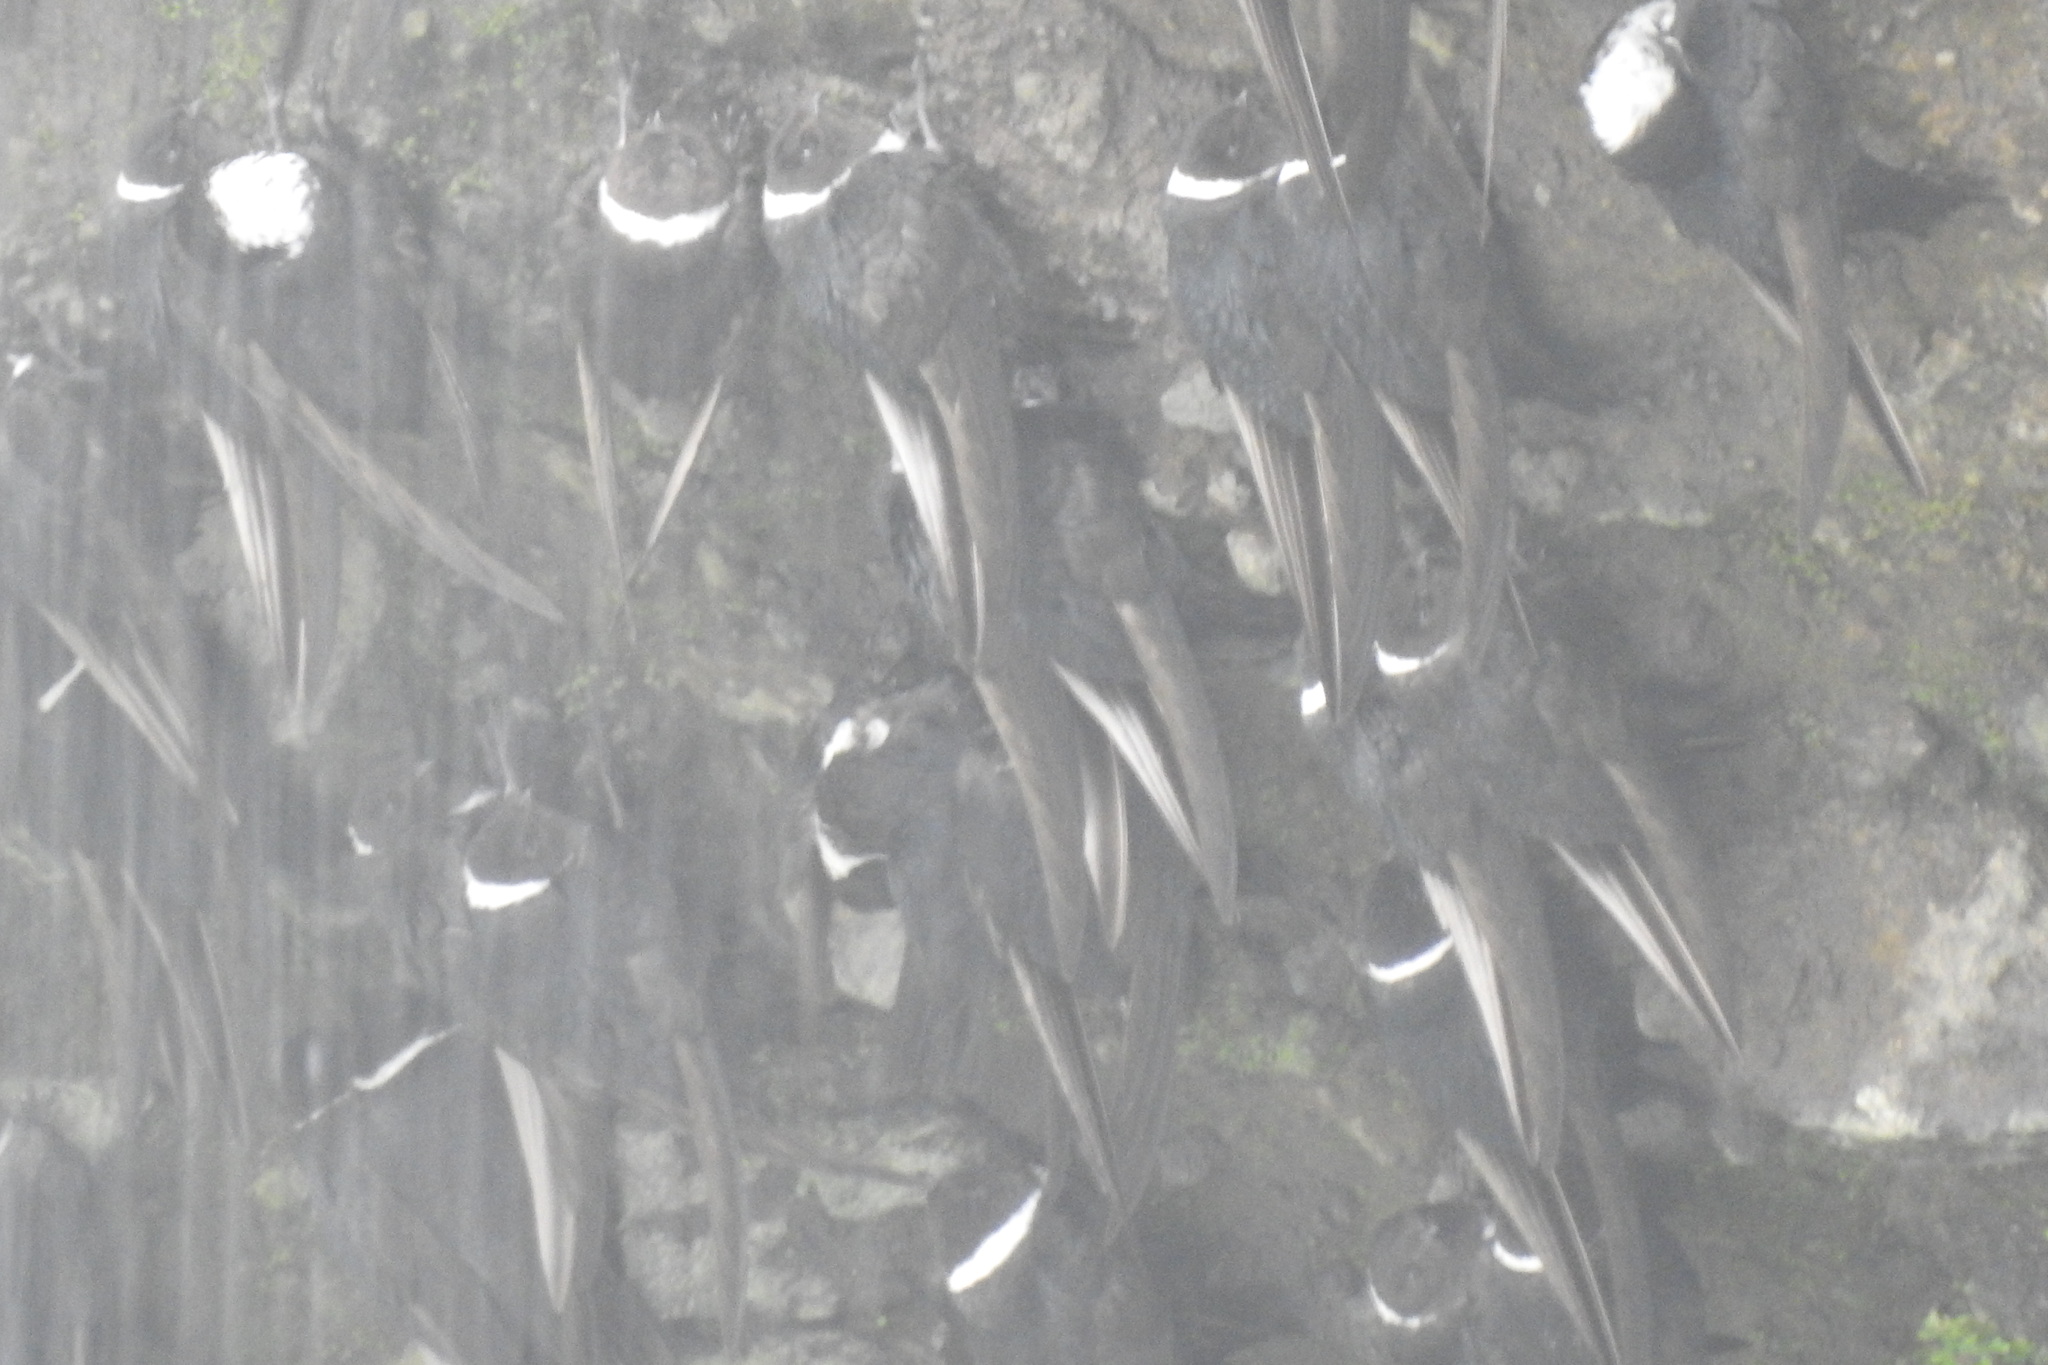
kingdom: Animalia
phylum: Chordata
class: Aves
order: Apodiformes
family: Apodidae
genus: Streptoprocne
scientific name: Streptoprocne zonaris
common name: White-collared swift
